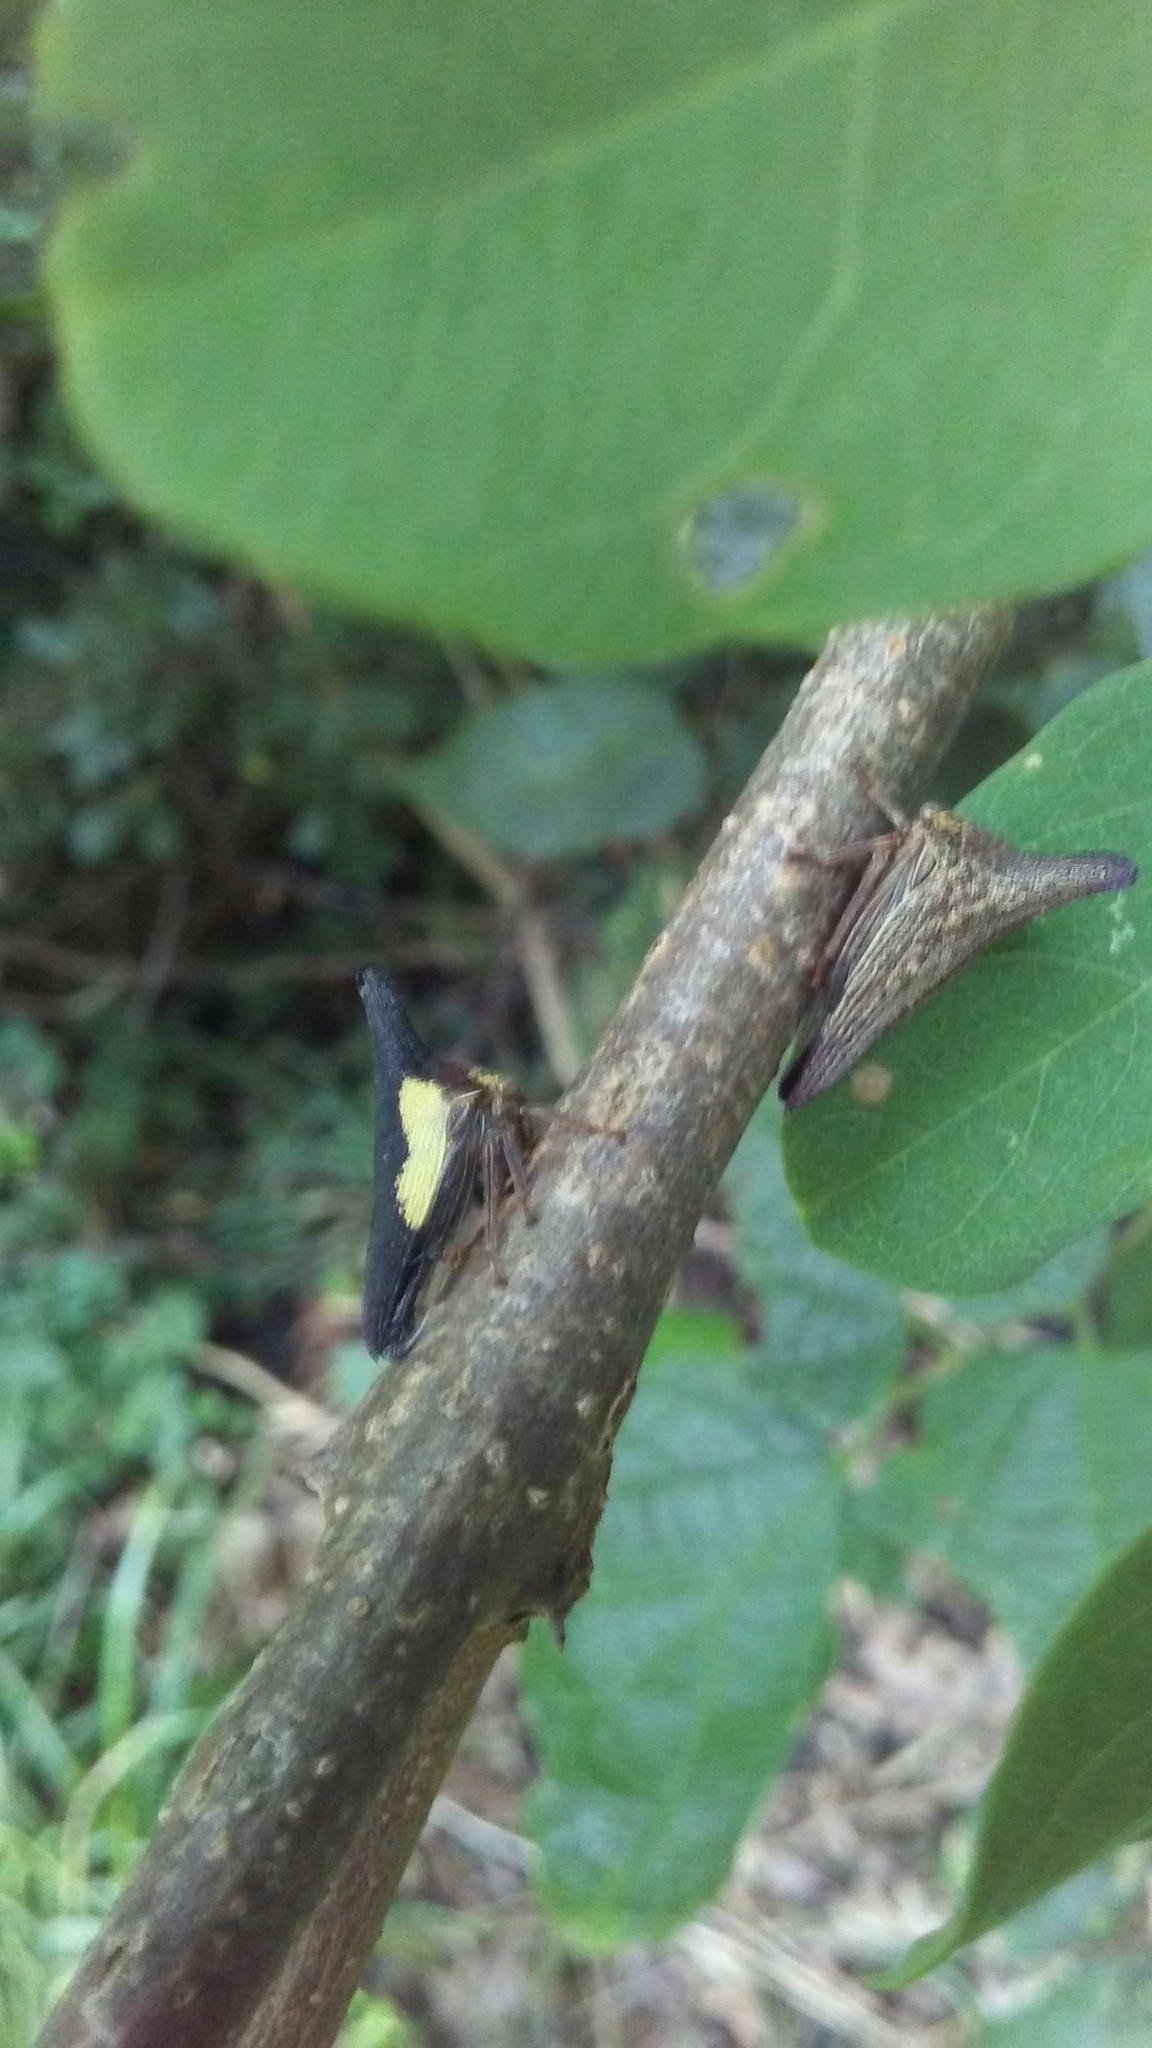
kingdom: Animalia
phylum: Arthropoda
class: Insecta
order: Hemiptera
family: Membracidae
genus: Thelia
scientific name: Thelia bimaculata
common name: Locust treehopper
